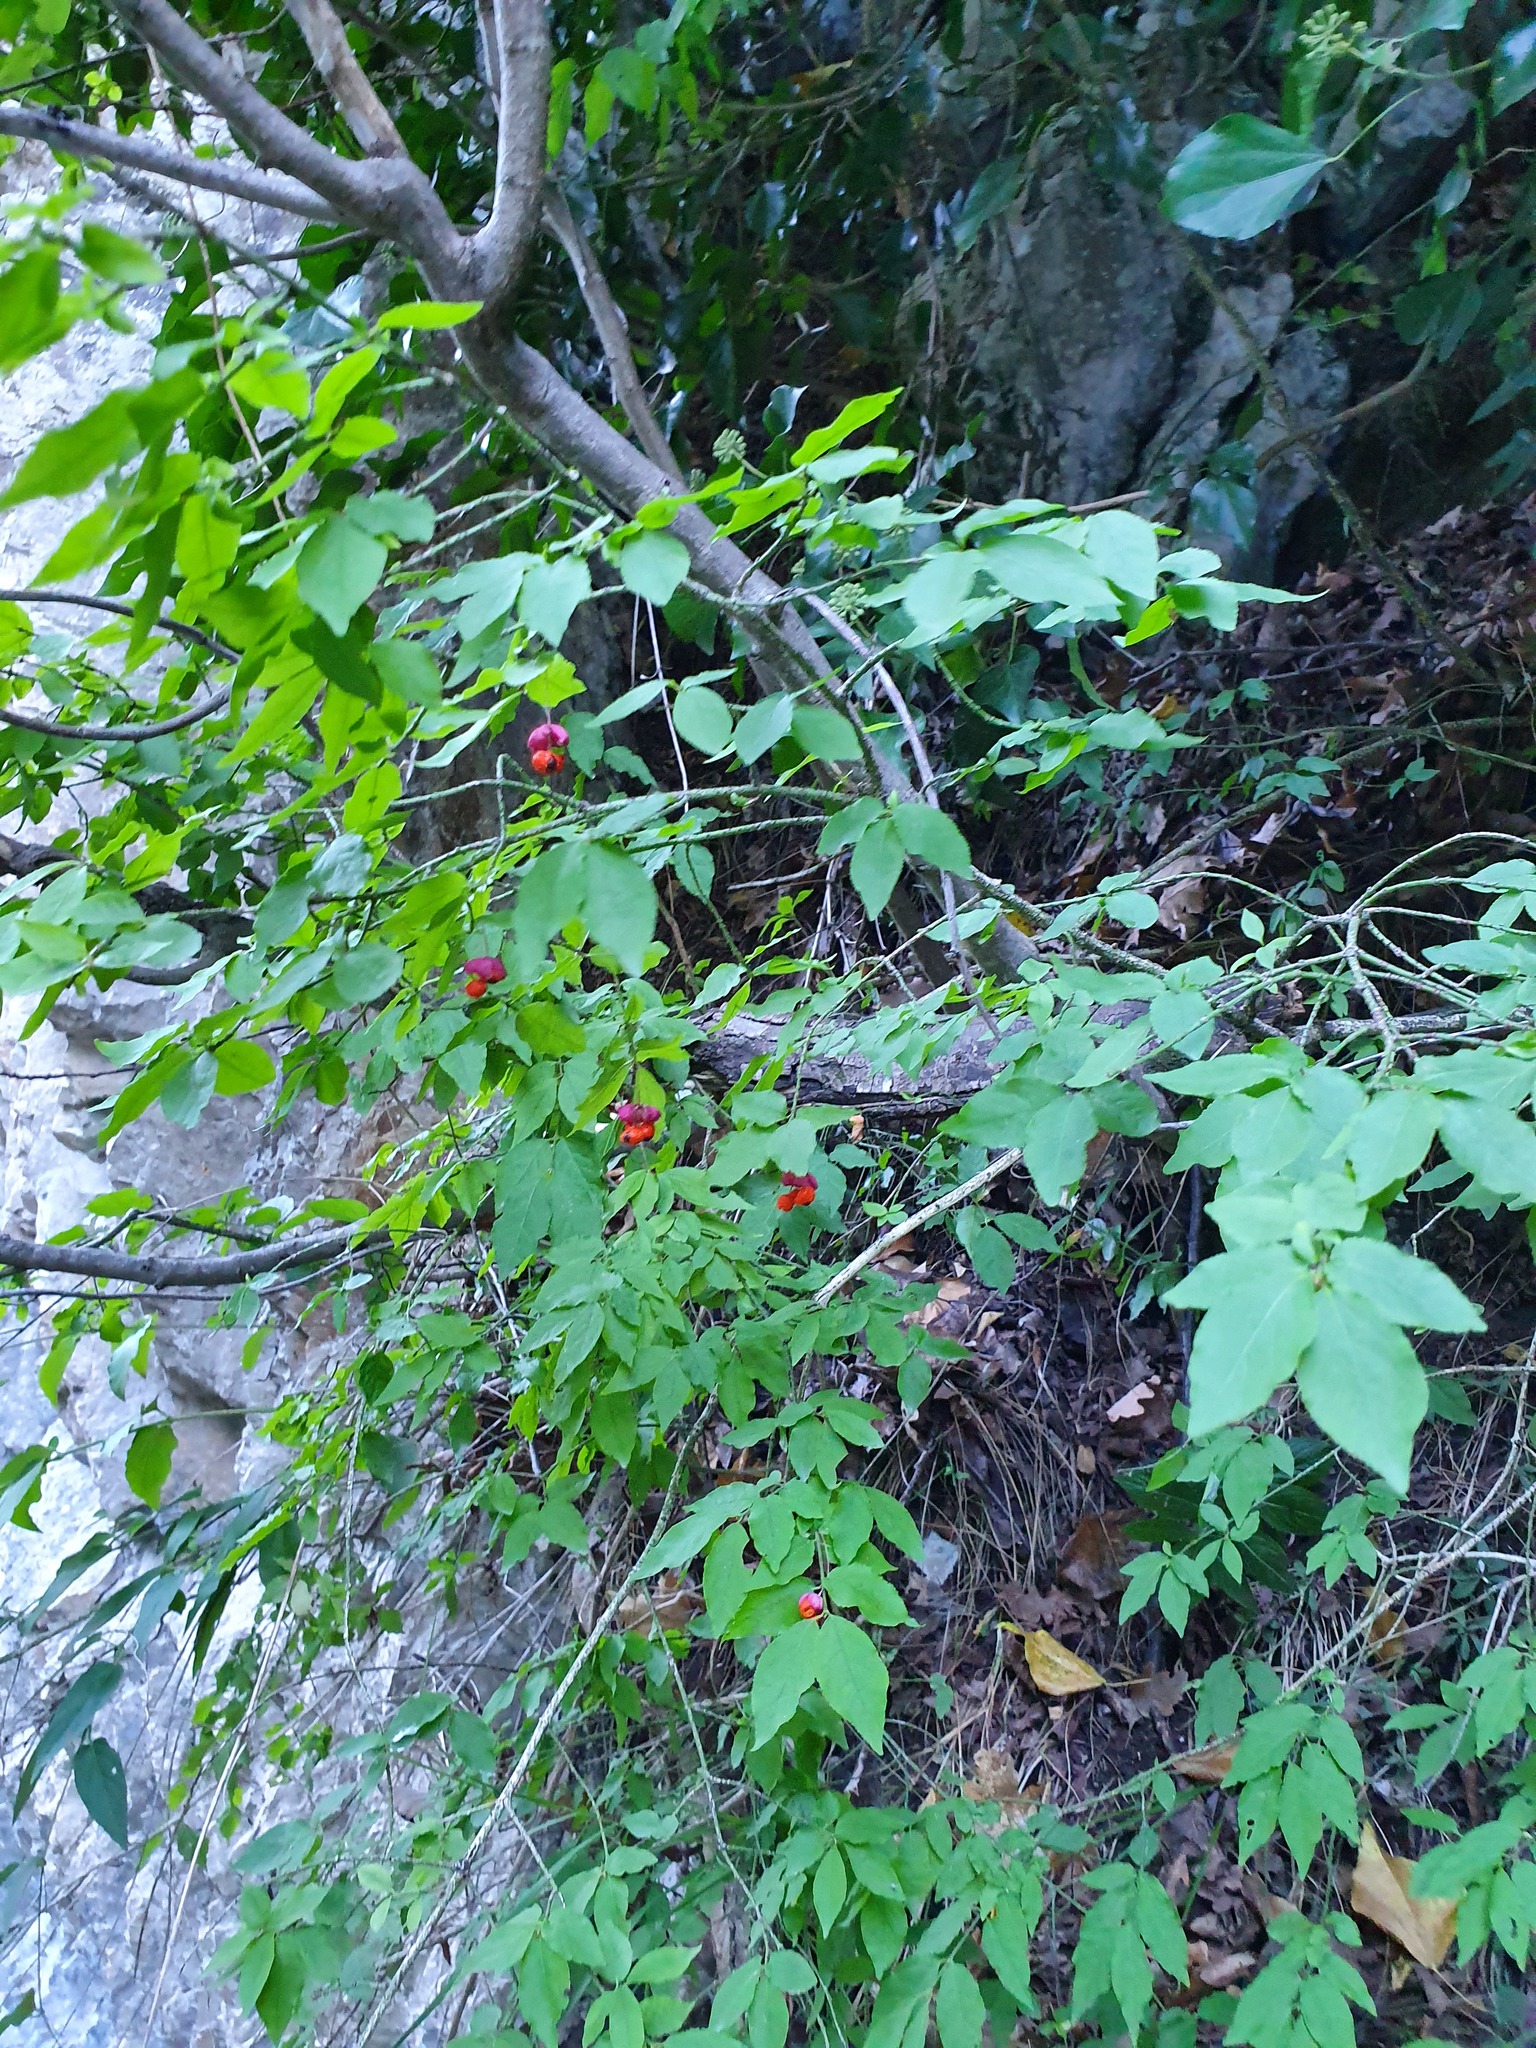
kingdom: Plantae
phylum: Tracheophyta
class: Magnoliopsida
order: Celastrales
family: Celastraceae
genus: Euonymus
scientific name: Euonymus verrucosus
